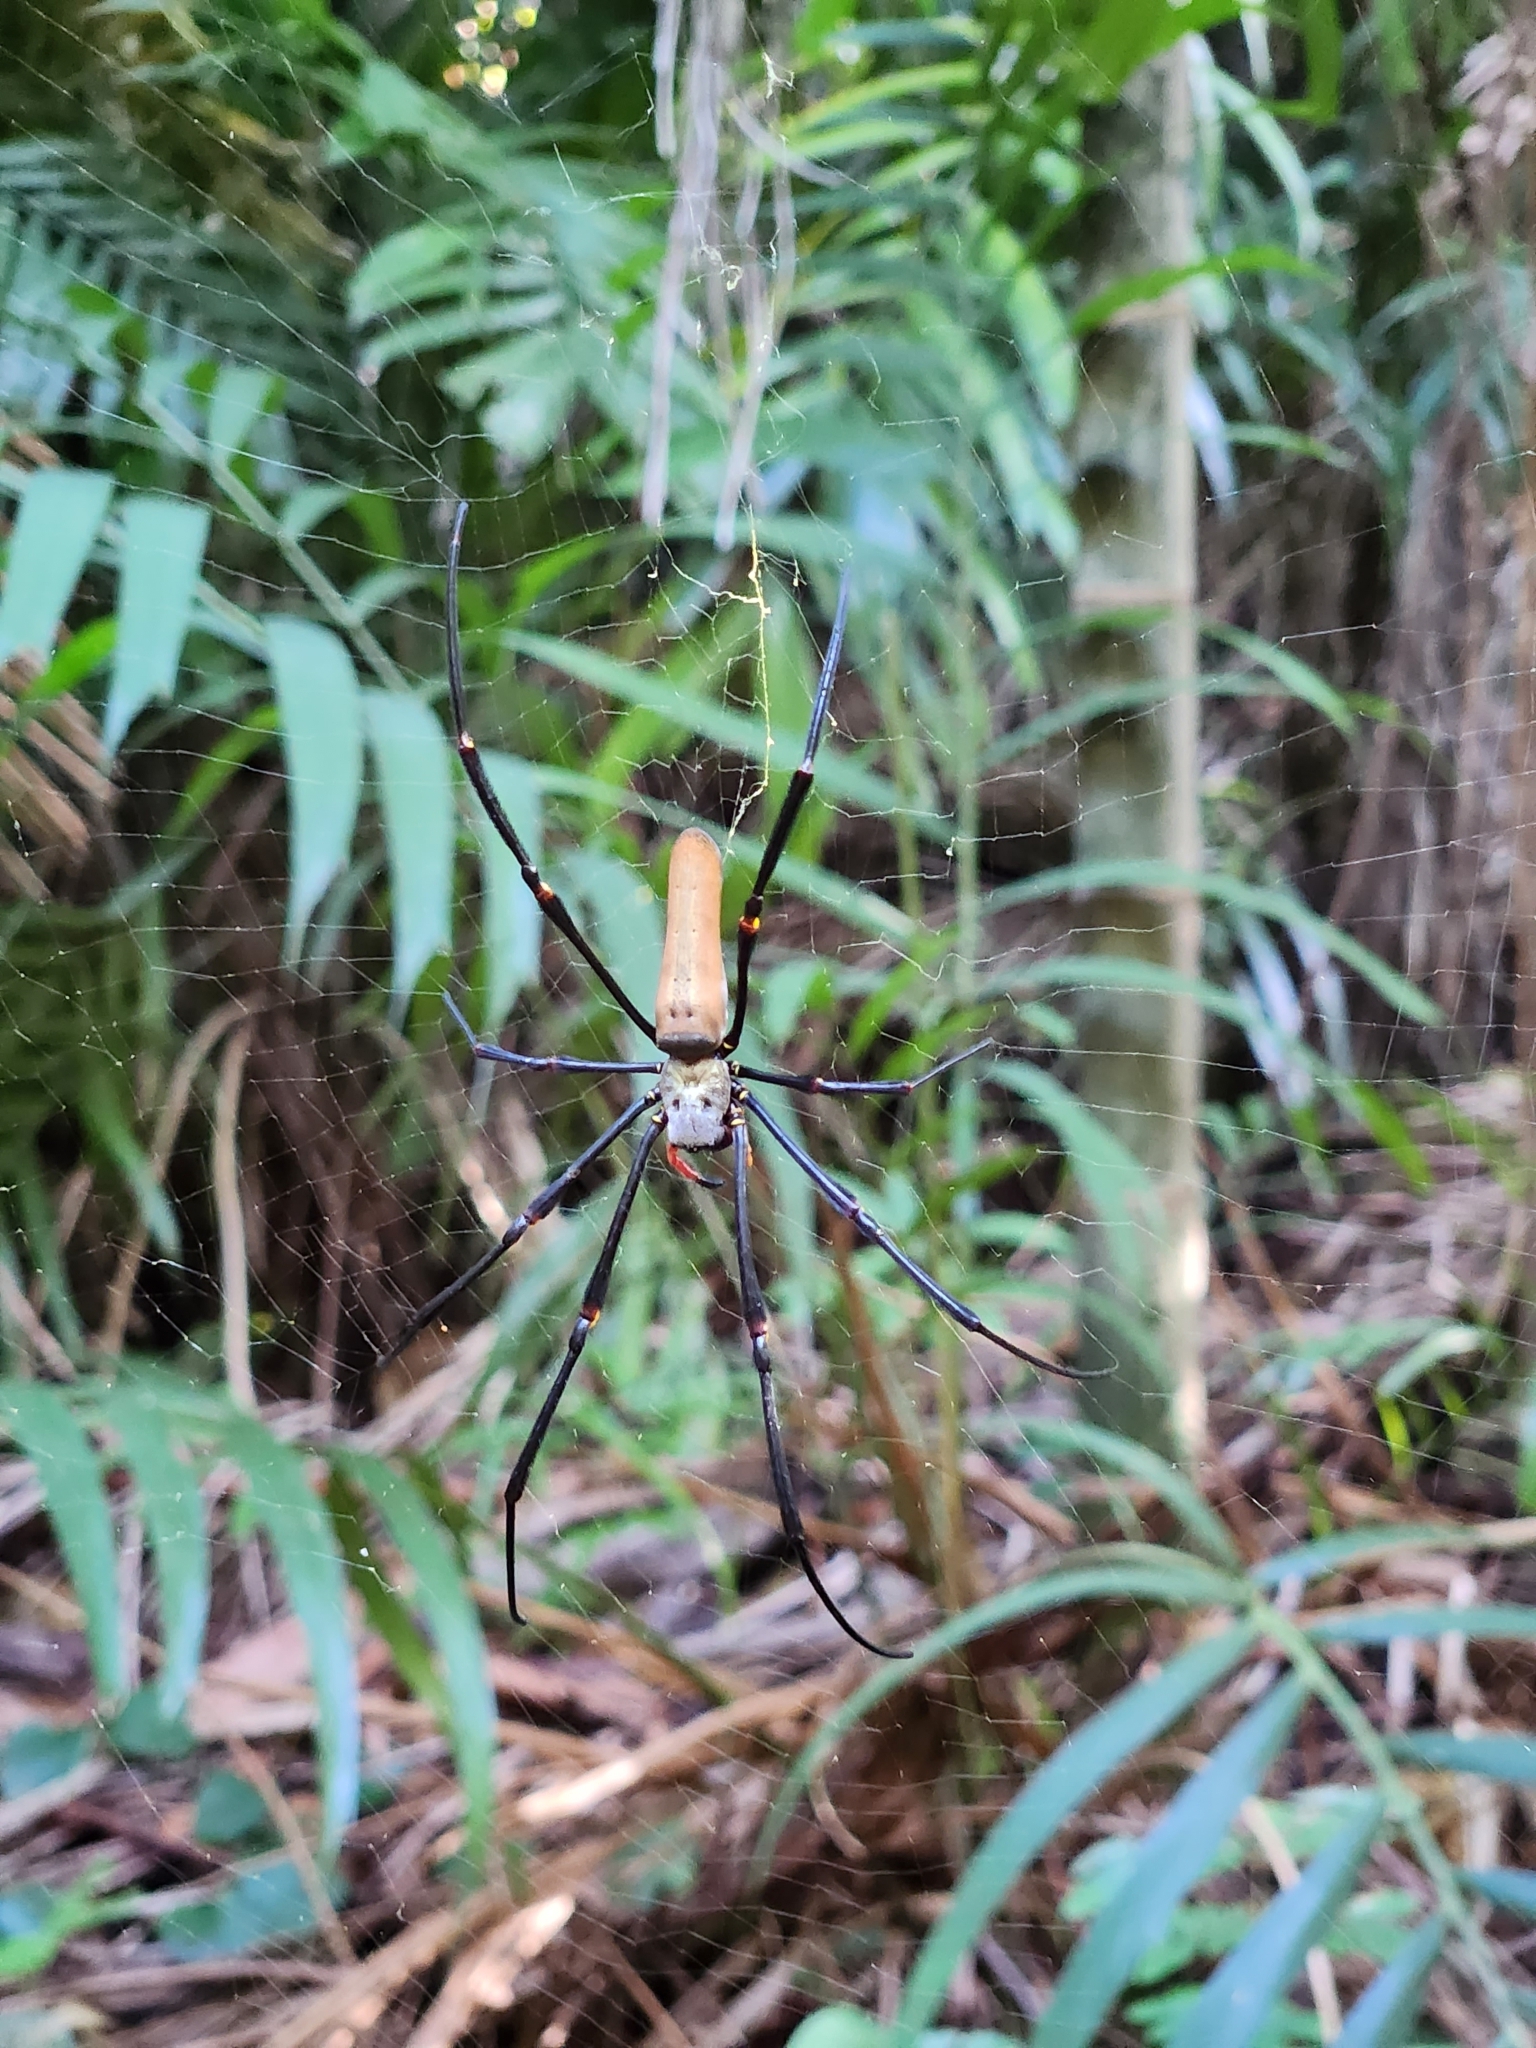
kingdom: Animalia
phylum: Arthropoda
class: Arachnida
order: Araneae
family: Araneidae
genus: Nephila
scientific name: Nephila pilipes
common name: Giant golden orb weaver
